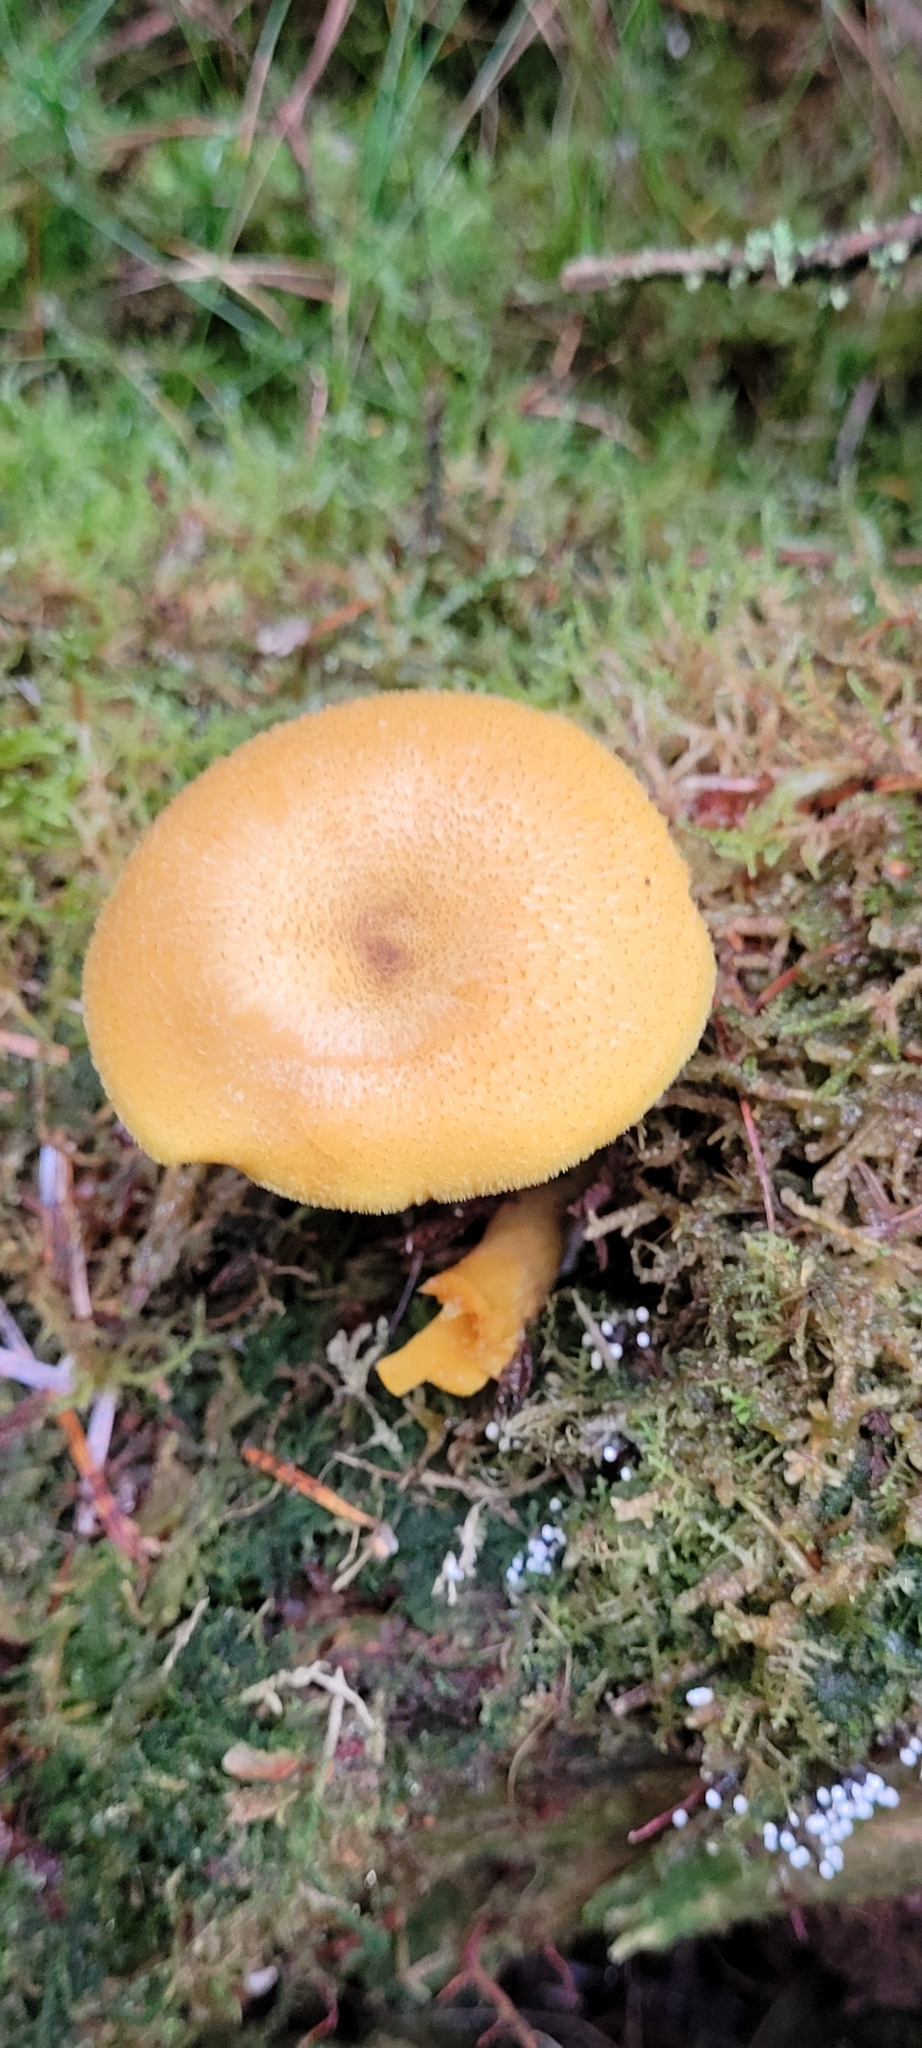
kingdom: Fungi
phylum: Basidiomycota
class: Agaricomycetes
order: Agaricales
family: Tricholomataceae
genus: Tricholomopsis
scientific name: Tricholomopsis decora
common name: Prunes and custard
